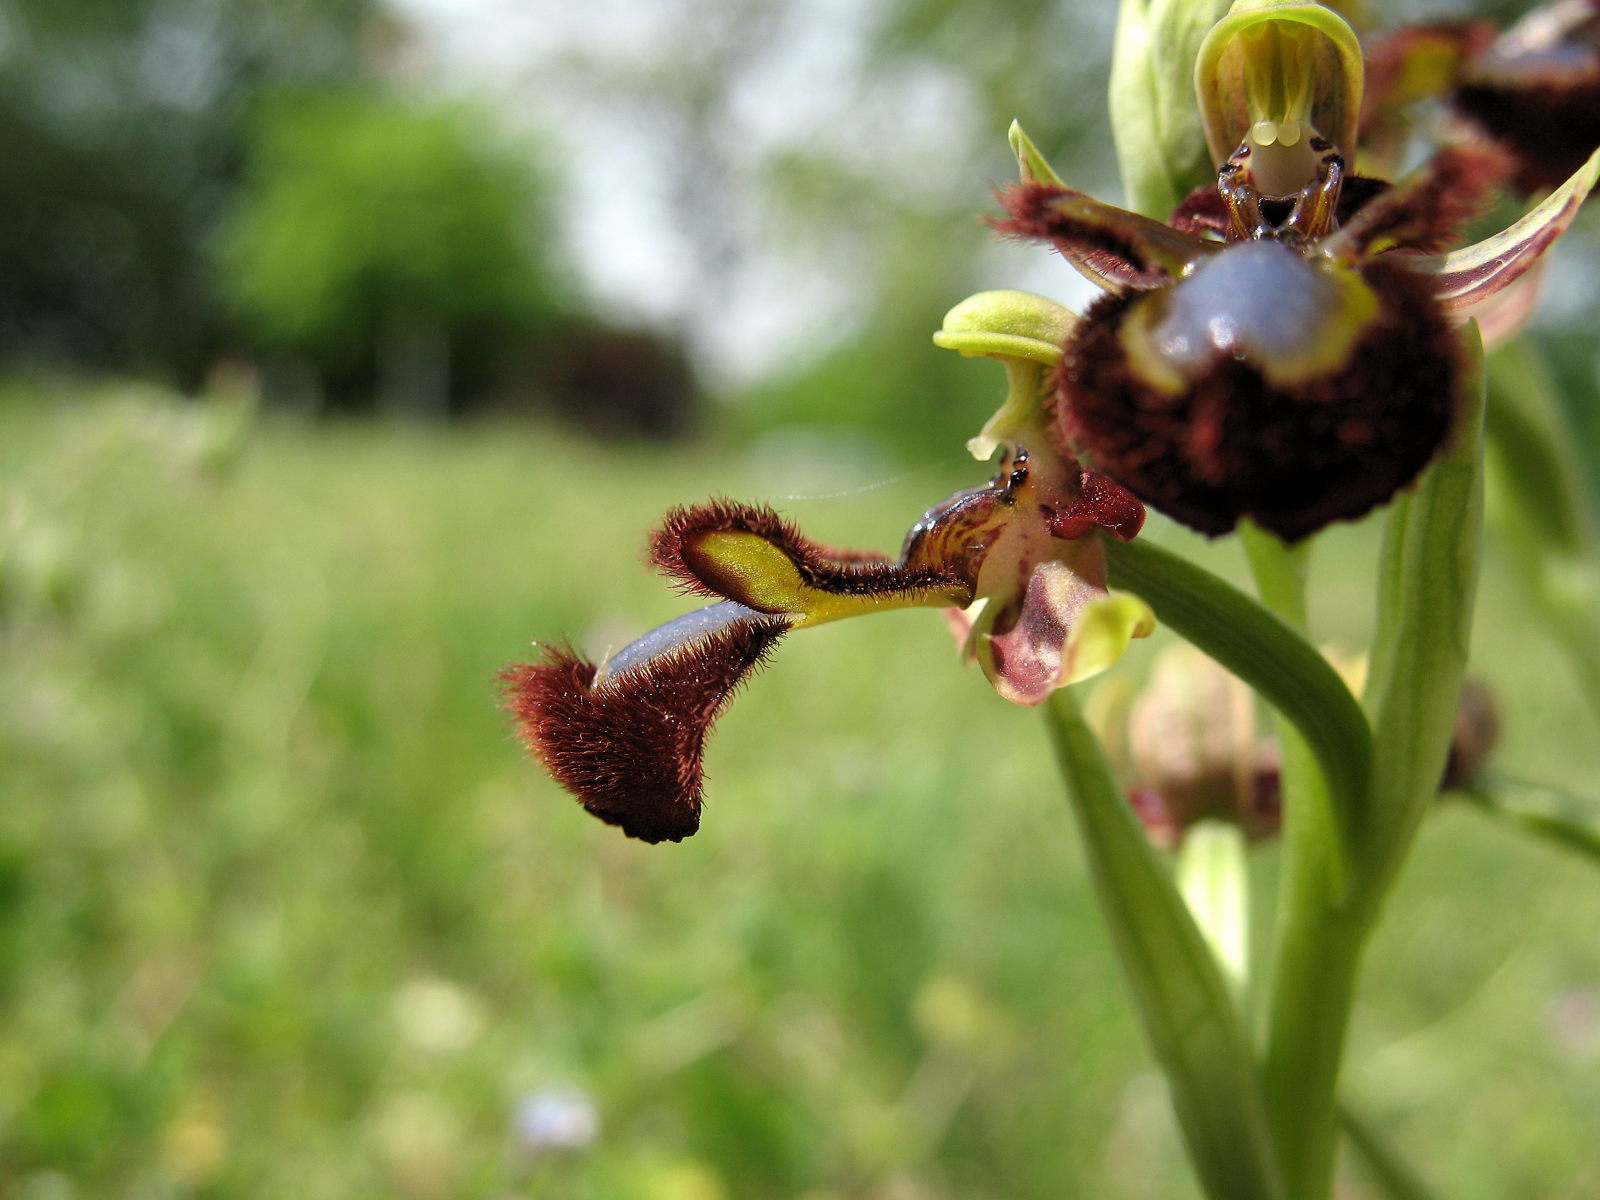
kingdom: Plantae
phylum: Tracheophyta
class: Liliopsida
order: Asparagales
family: Orchidaceae
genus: Ophrys
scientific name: Ophrys speculum
